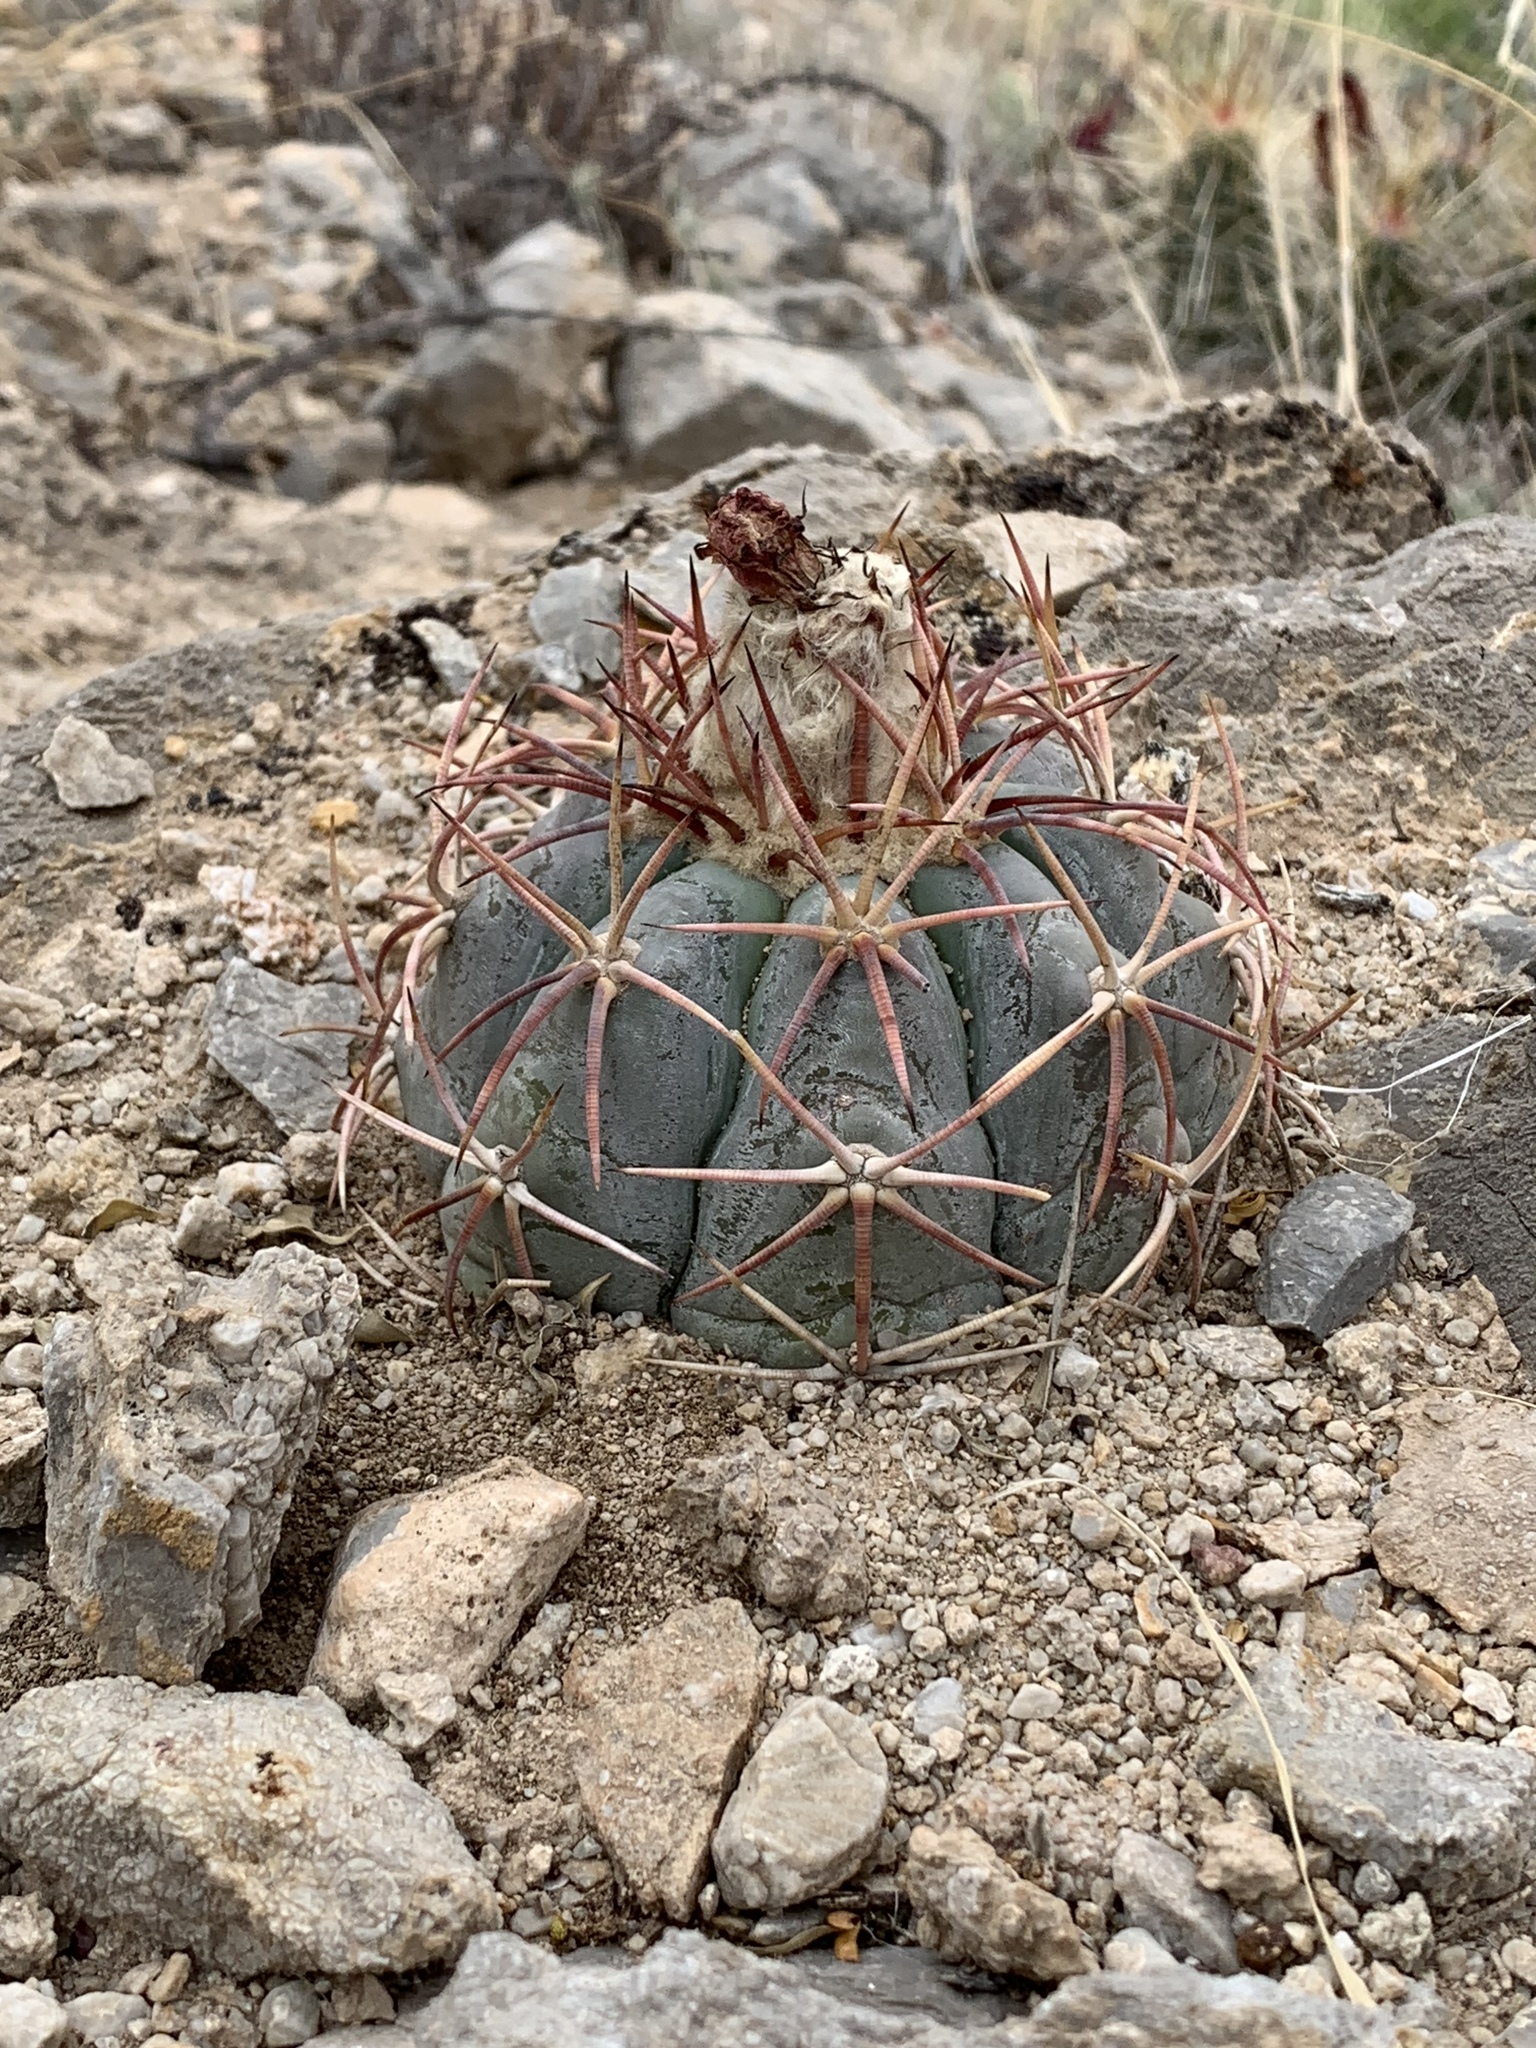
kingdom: Plantae
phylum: Tracheophyta
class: Magnoliopsida
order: Caryophyllales
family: Cactaceae
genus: Echinocactus
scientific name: Echinocactus horizonthalonius
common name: Devilshead
